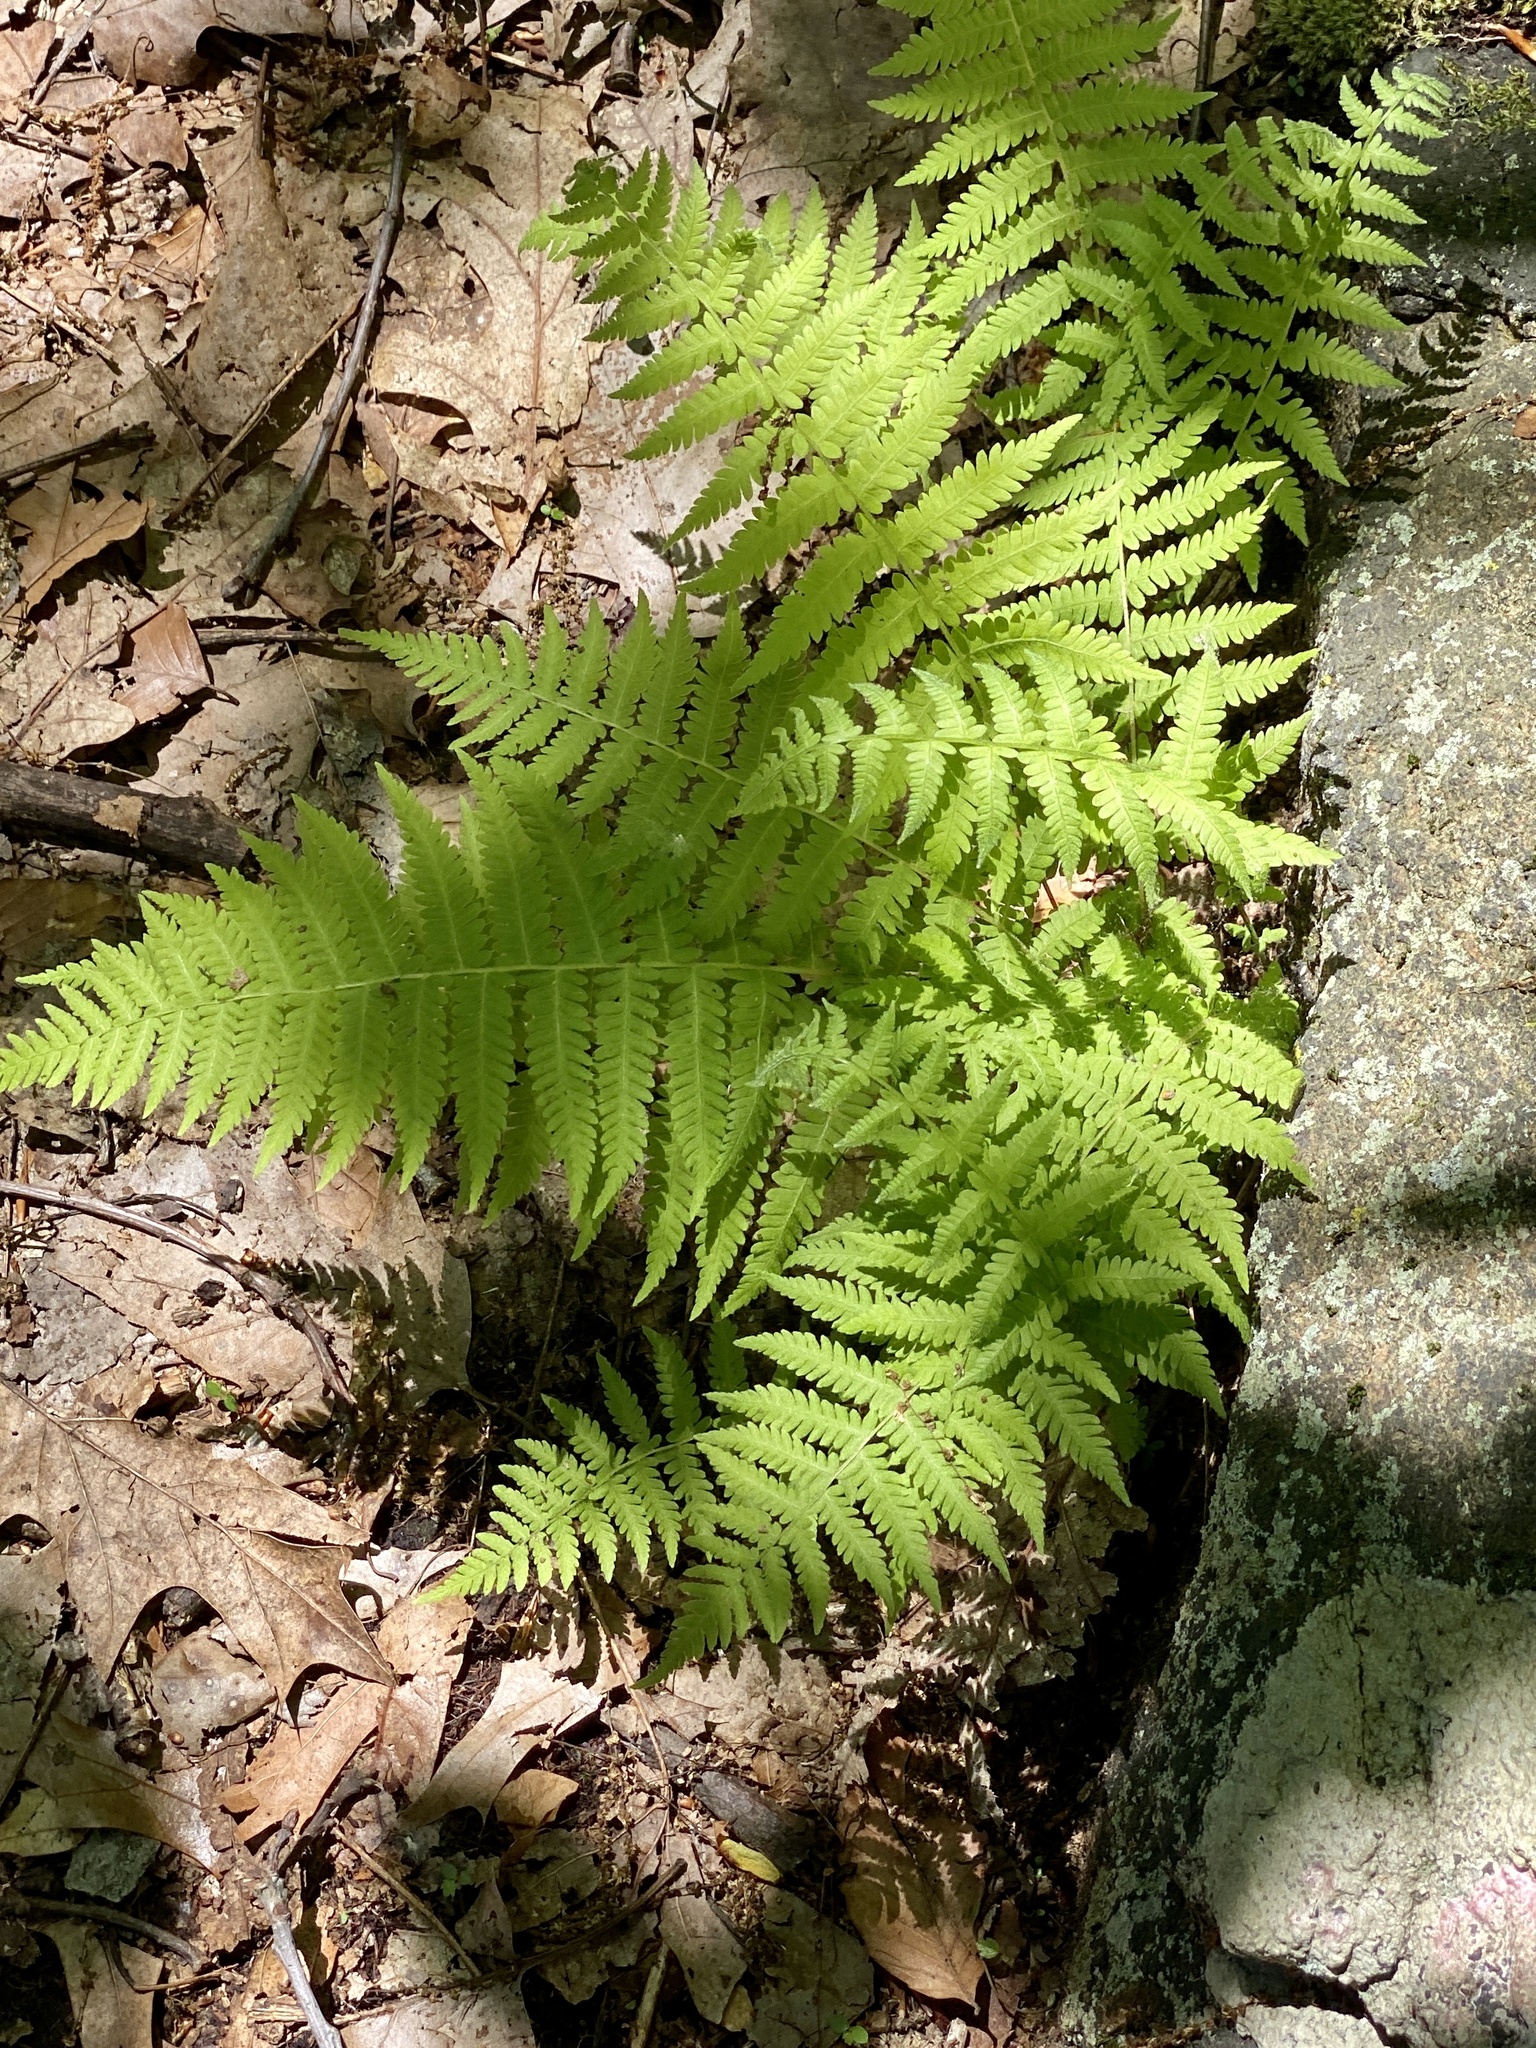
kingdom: Plantae
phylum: Tracheophyta
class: Polypodiopsida
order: Polypodiales
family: Thelypteridaceae
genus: Amauropelta
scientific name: Amauropelta noveboracensis
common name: New york fern
